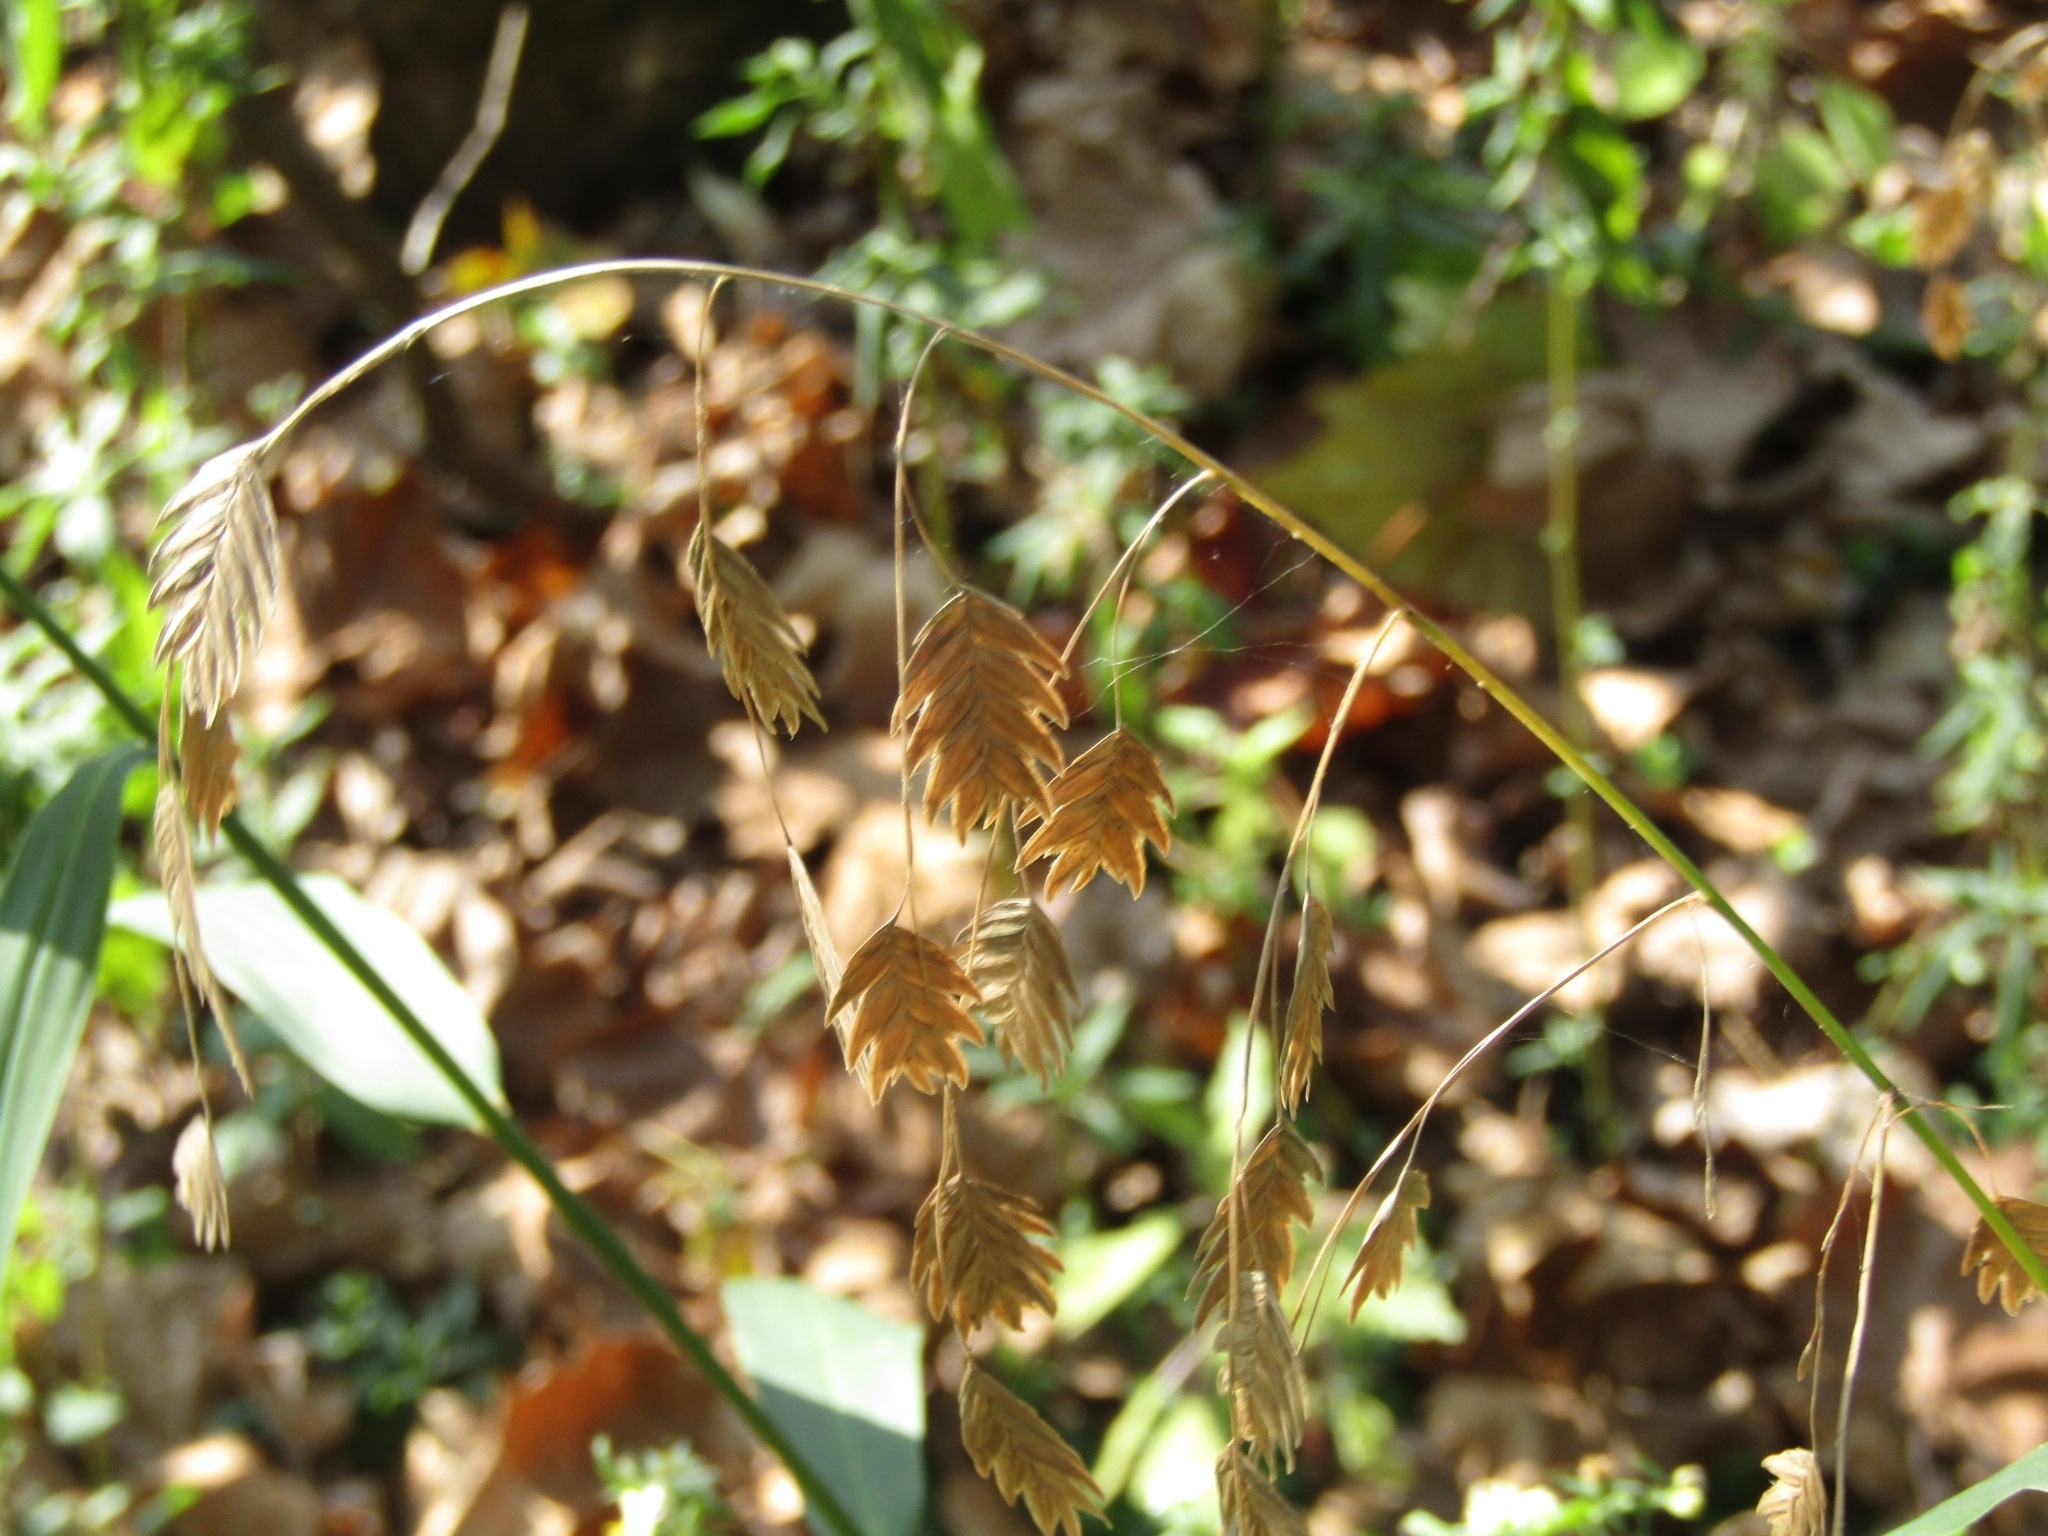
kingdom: Plantae
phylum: Tracheophyta
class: Liliopsida
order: Poales
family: Poaceae
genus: Chasmanthium
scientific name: Chasmanthium latifolium
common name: Broad-leaved chasmanthium
